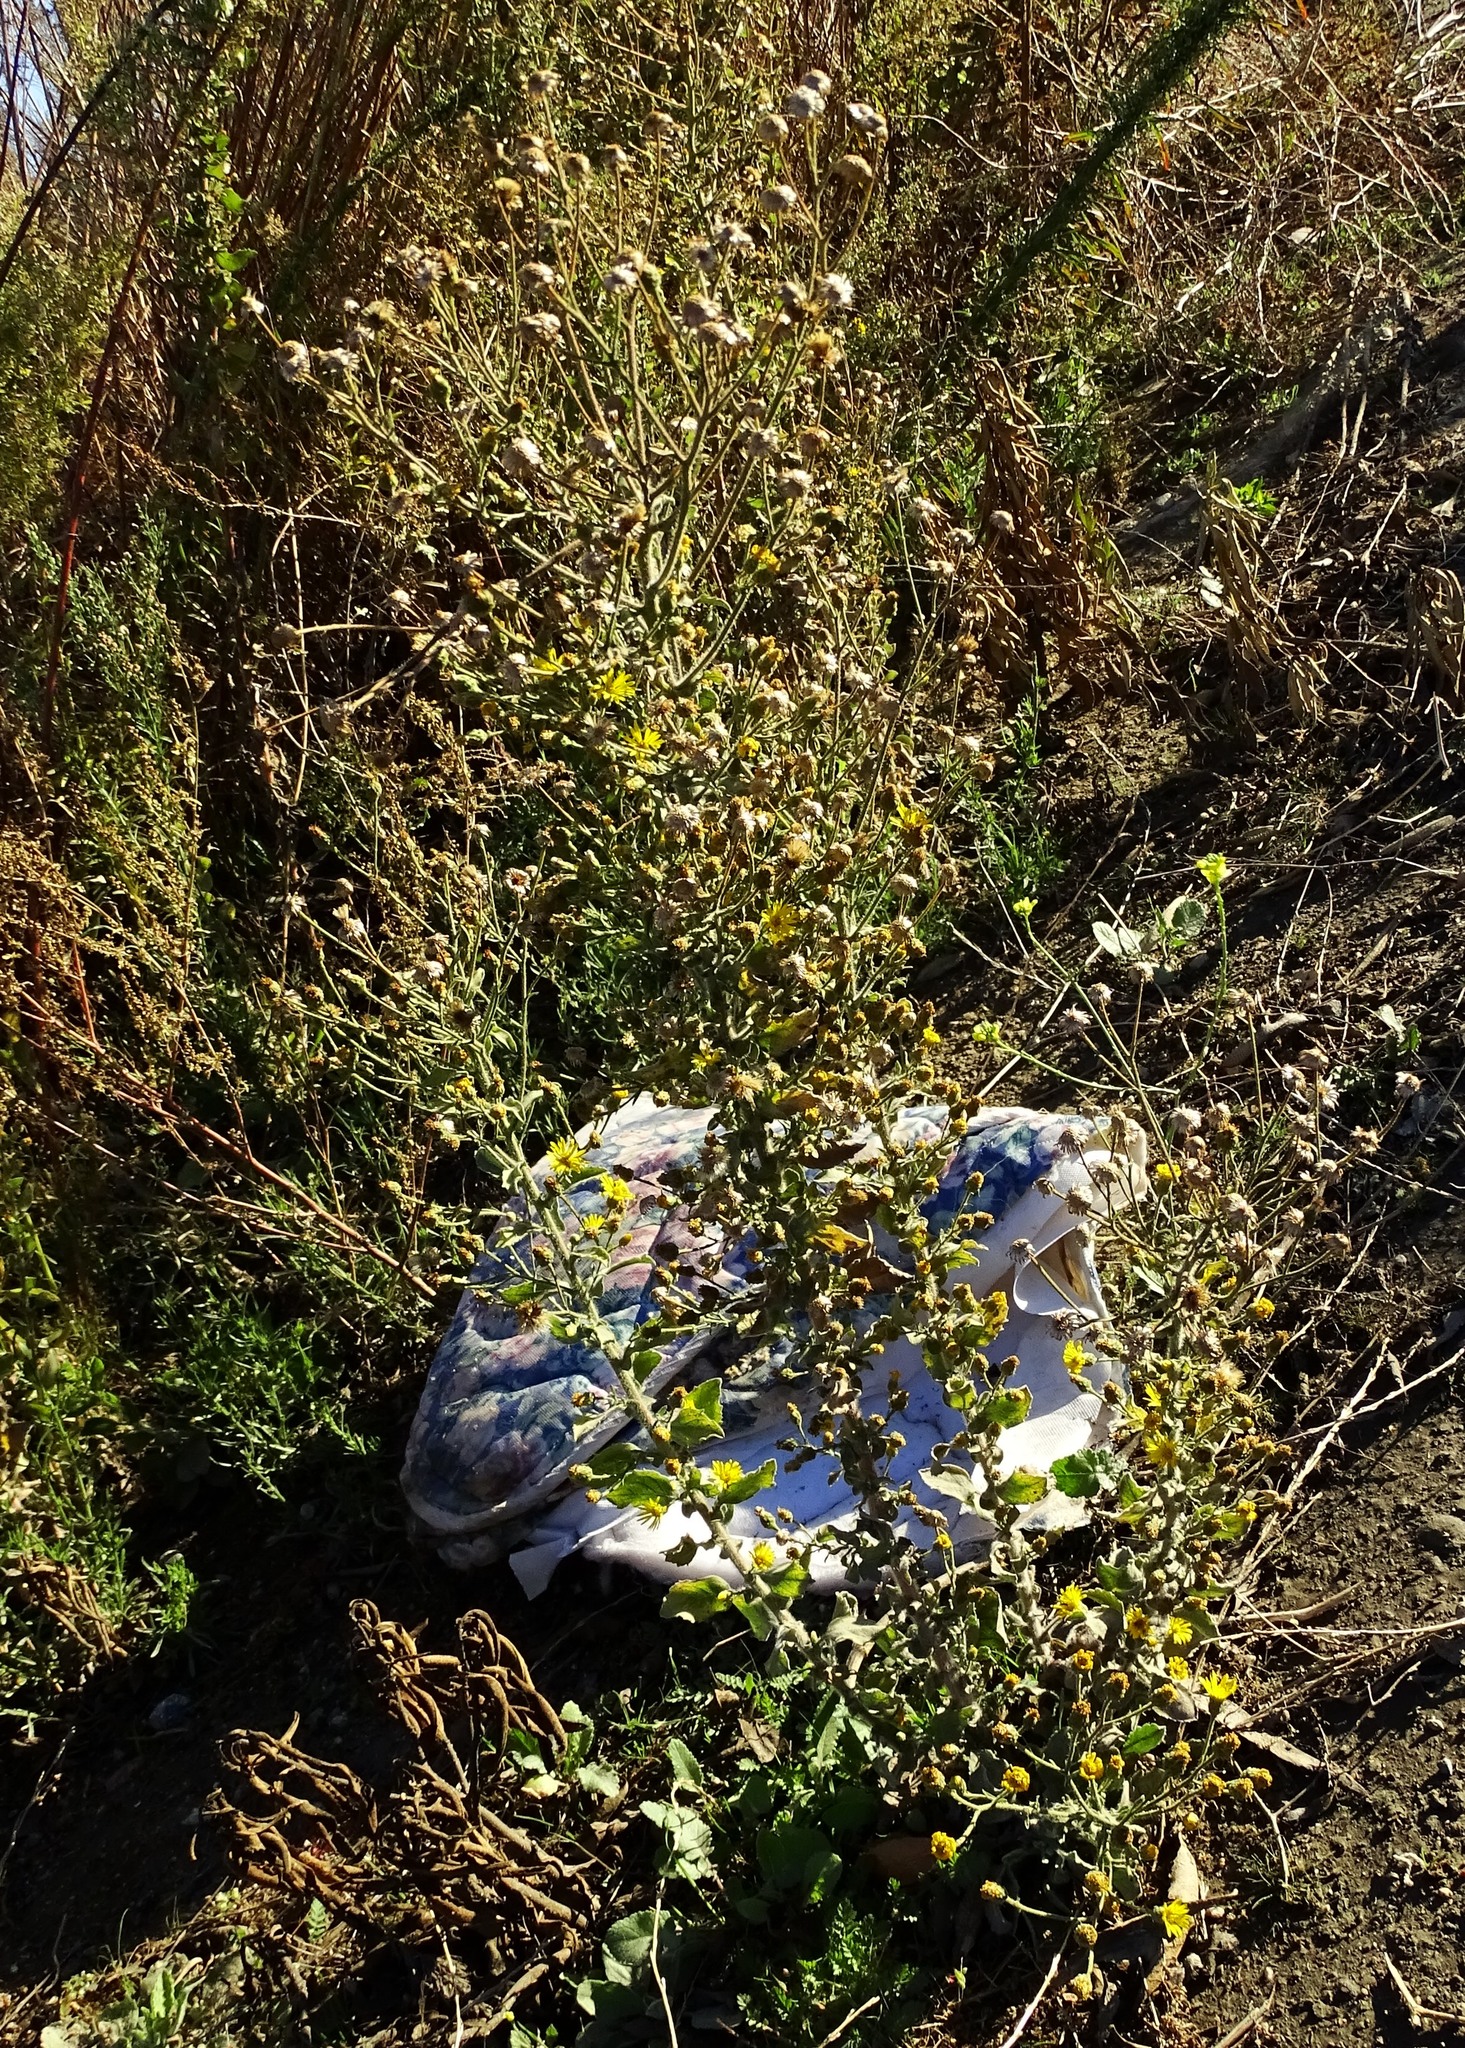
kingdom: Plantae
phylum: Tracheophyta
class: Magnoliopsida
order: Asterales
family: Asteraceae
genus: Heterotheca
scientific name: Heterotheca grandiflora
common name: Telegraphweed
